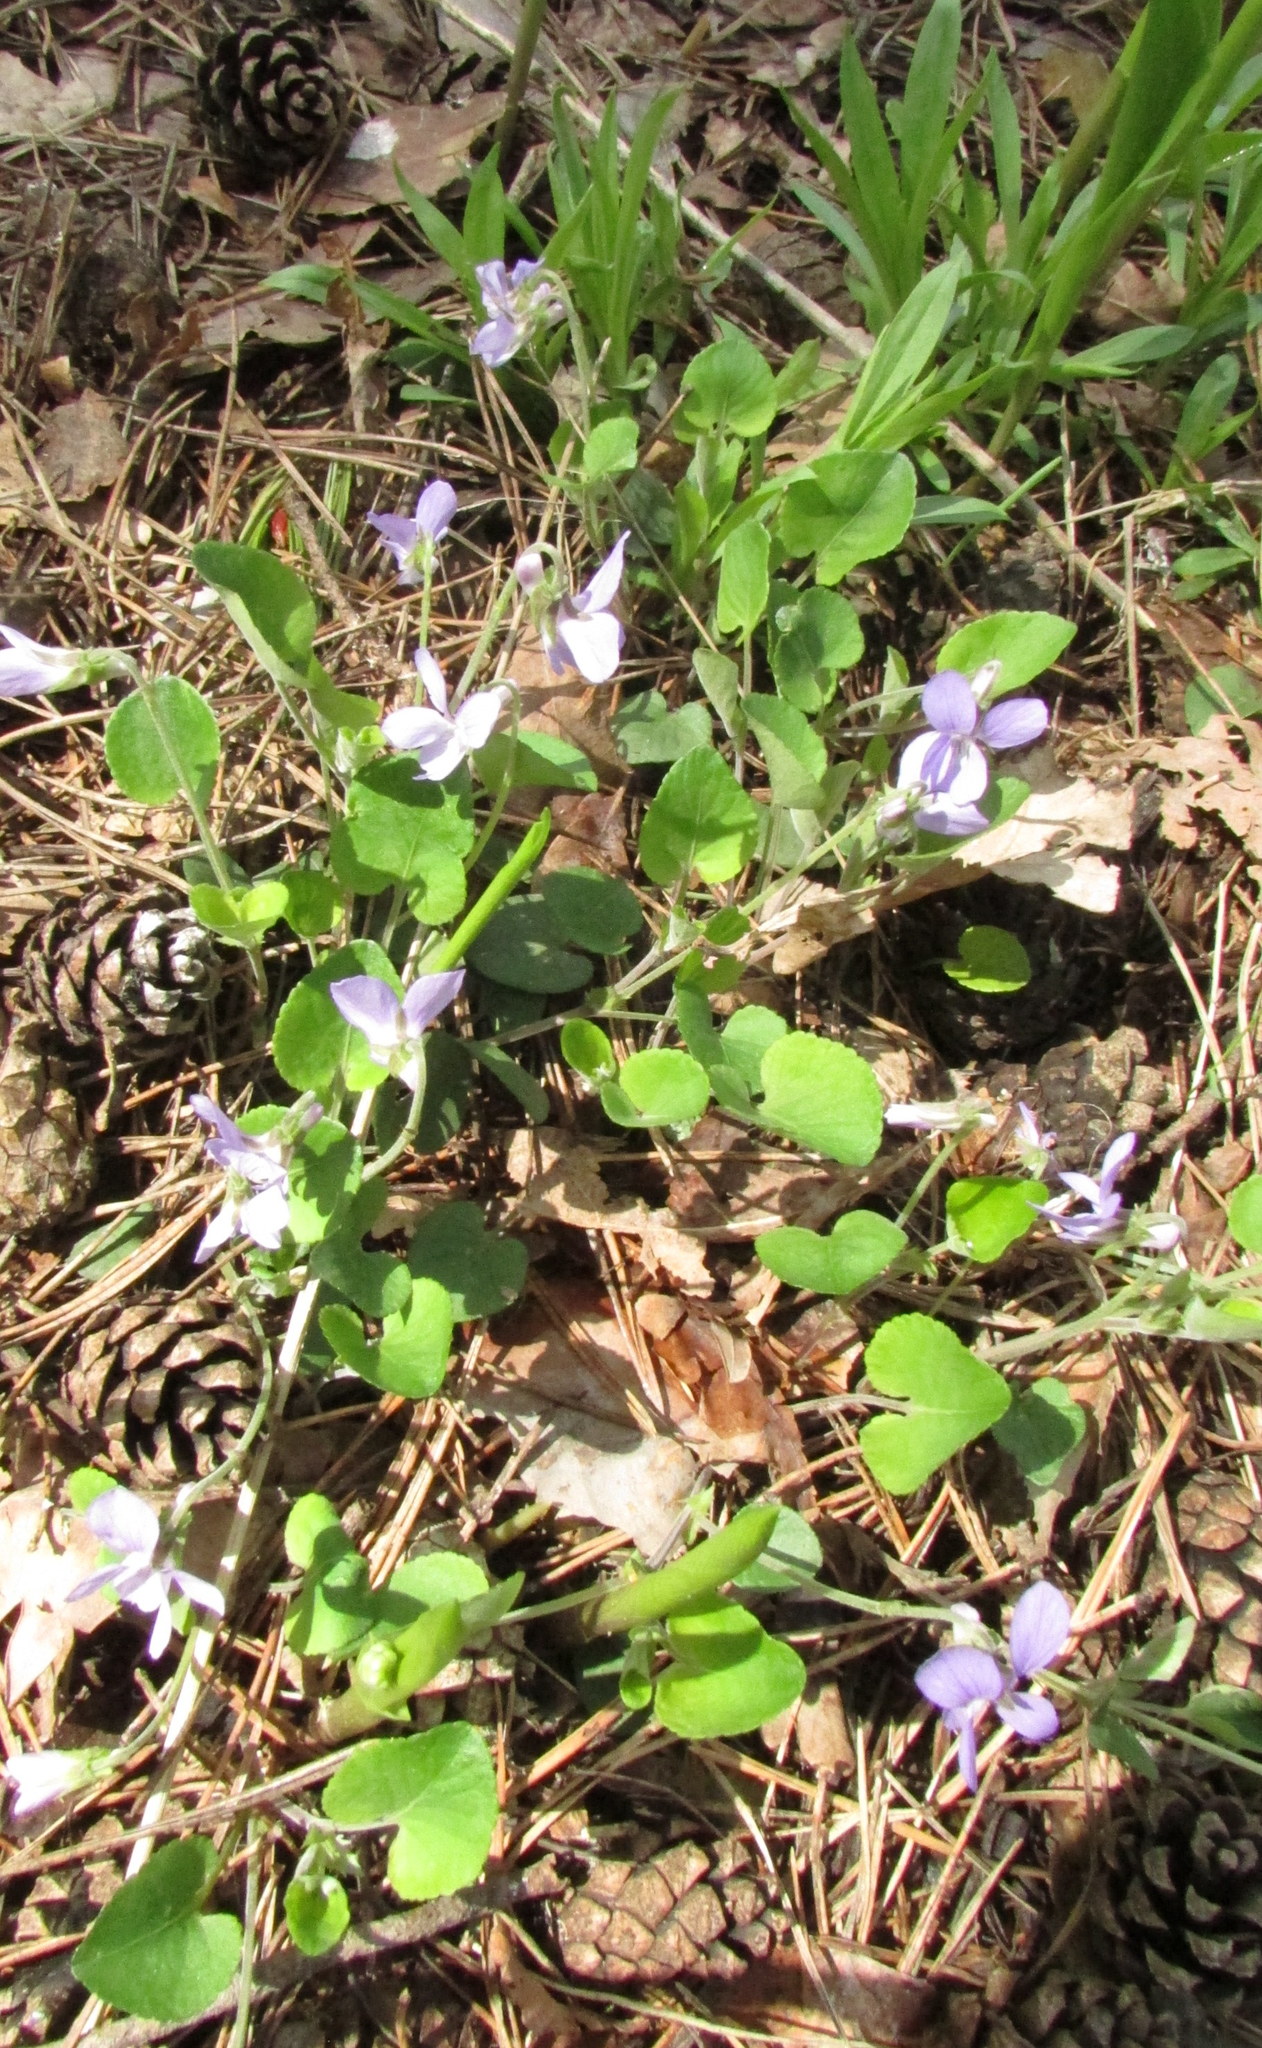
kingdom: Plantae
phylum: Tracheophyta
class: Magnoliopsida
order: Malpighiales
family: Violaceae
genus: Viola
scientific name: Viola rupestris
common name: Teesdale violet
